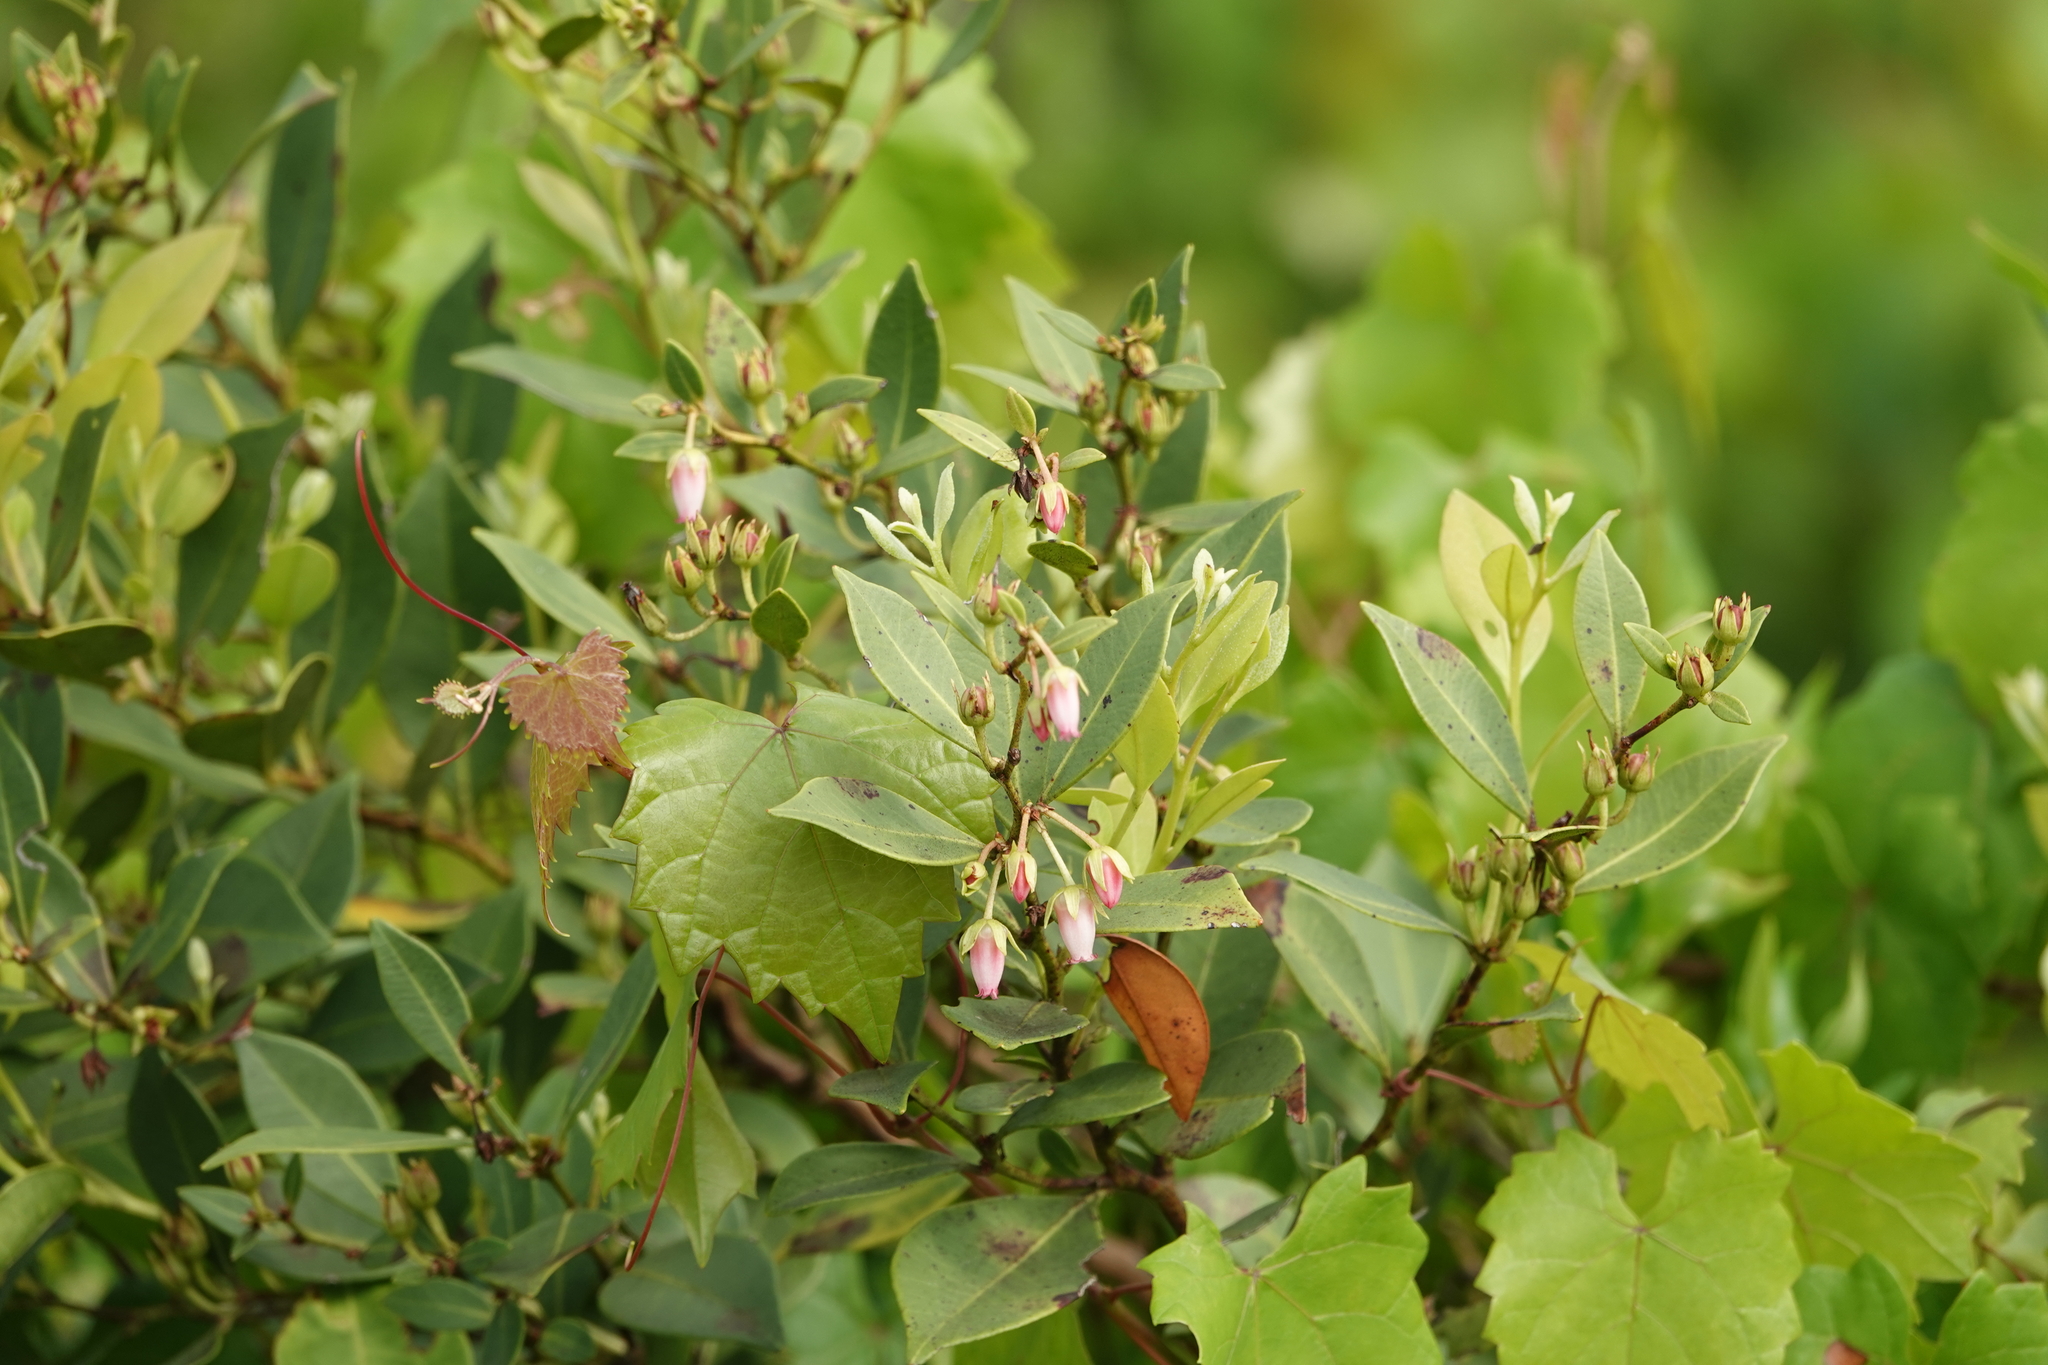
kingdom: Plantae
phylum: Tracheophyta
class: Magnoliopsida
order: Ericales
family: Ericaceae
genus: Lyonia
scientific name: Lyonia lucida
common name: Fetterbush
